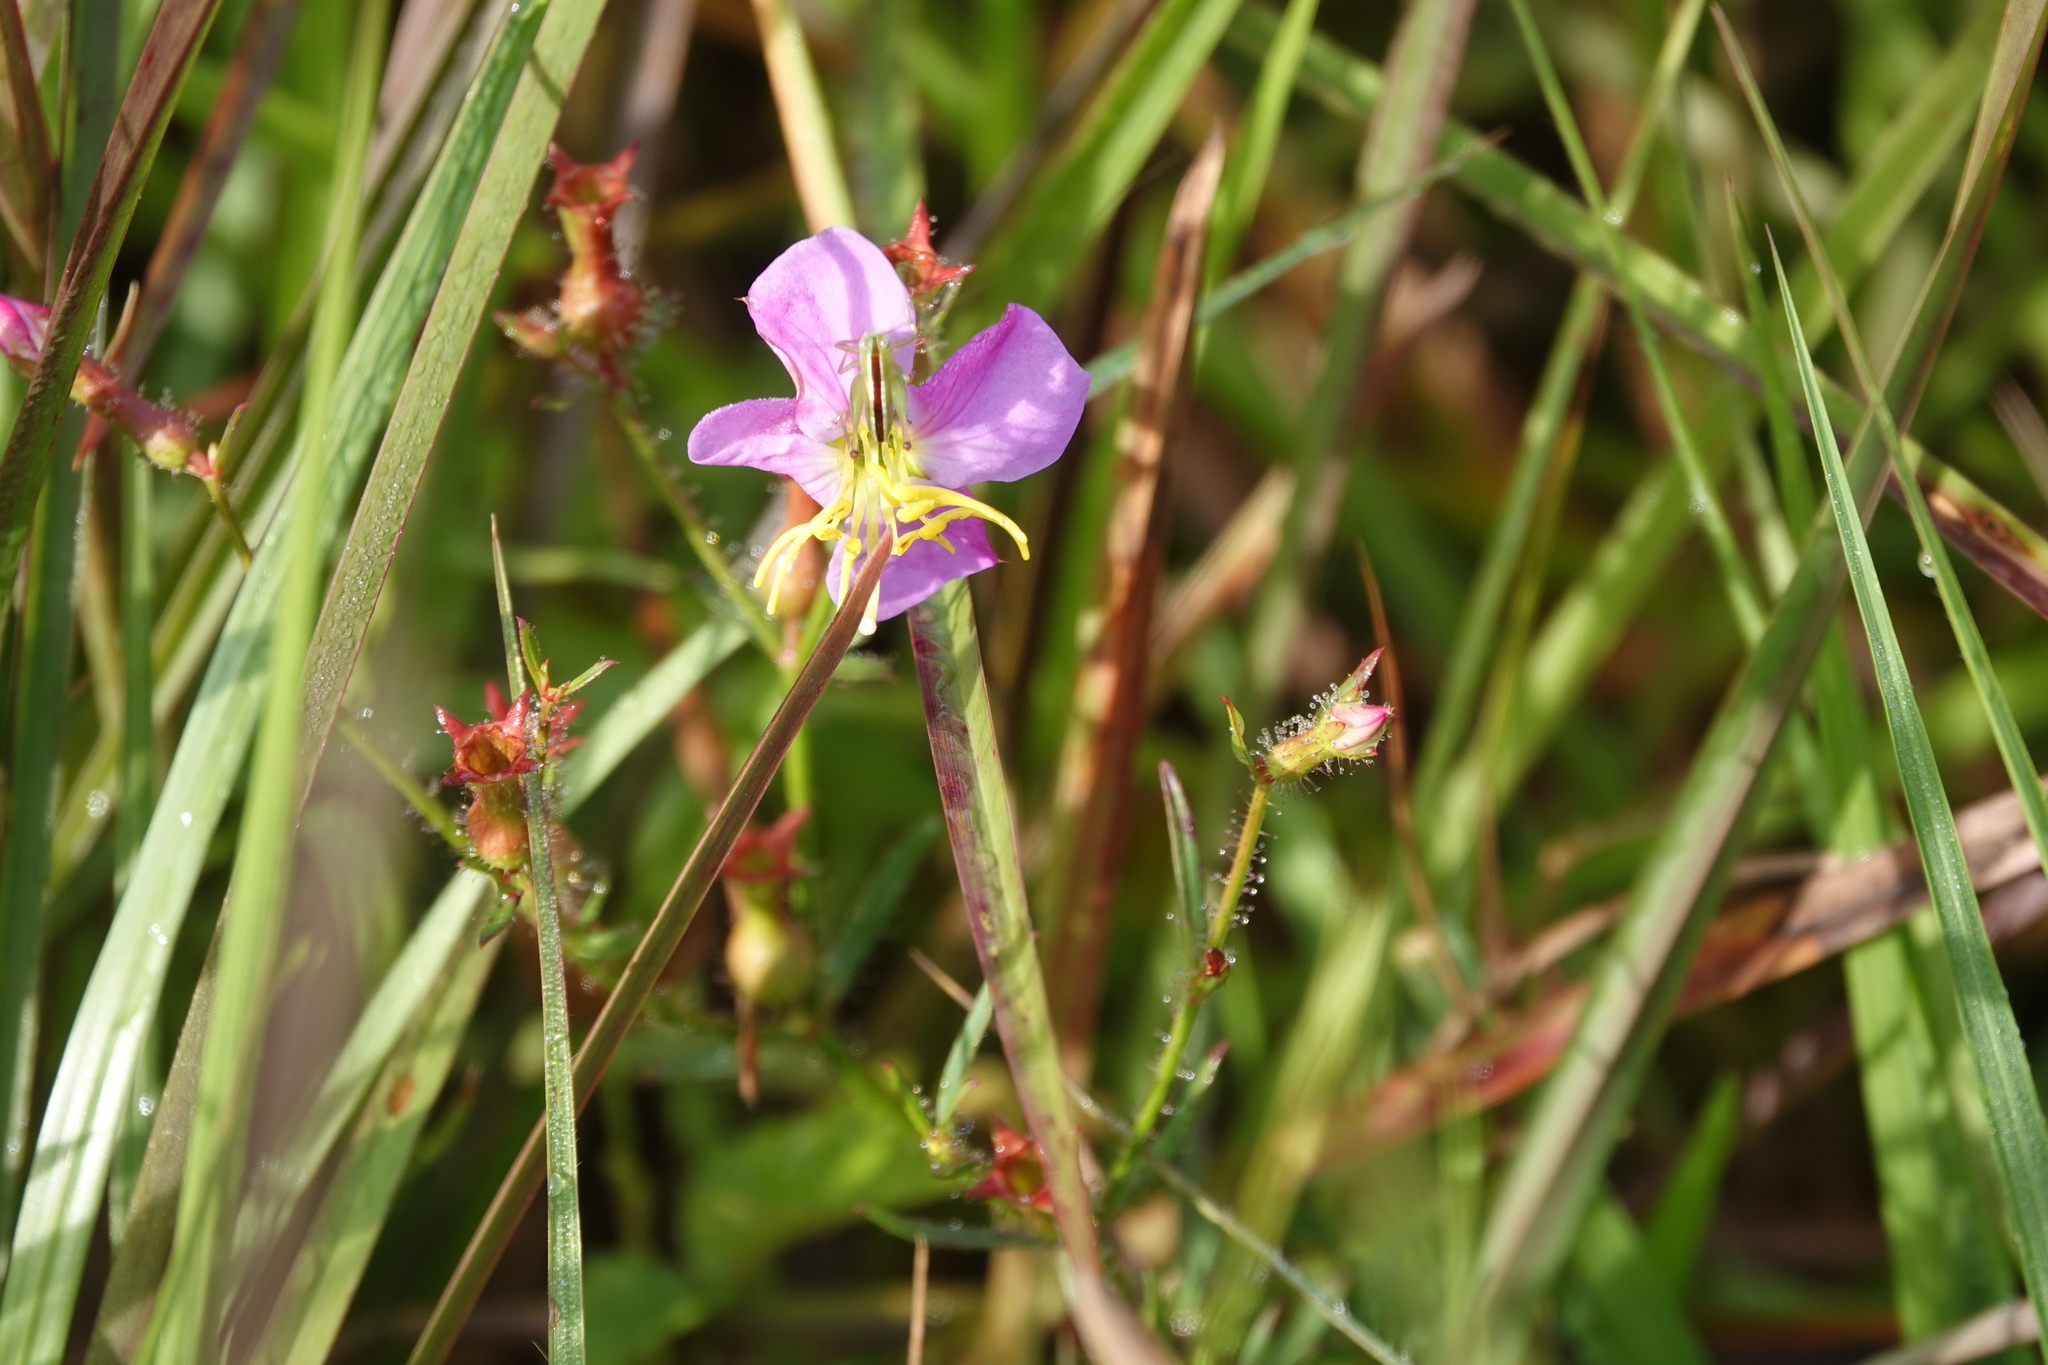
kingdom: Plantae
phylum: Tracheophyta
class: Magnoliopsida
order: Myrtales
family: Melastomataceae
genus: Rhexia
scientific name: Rhexia cubensis
